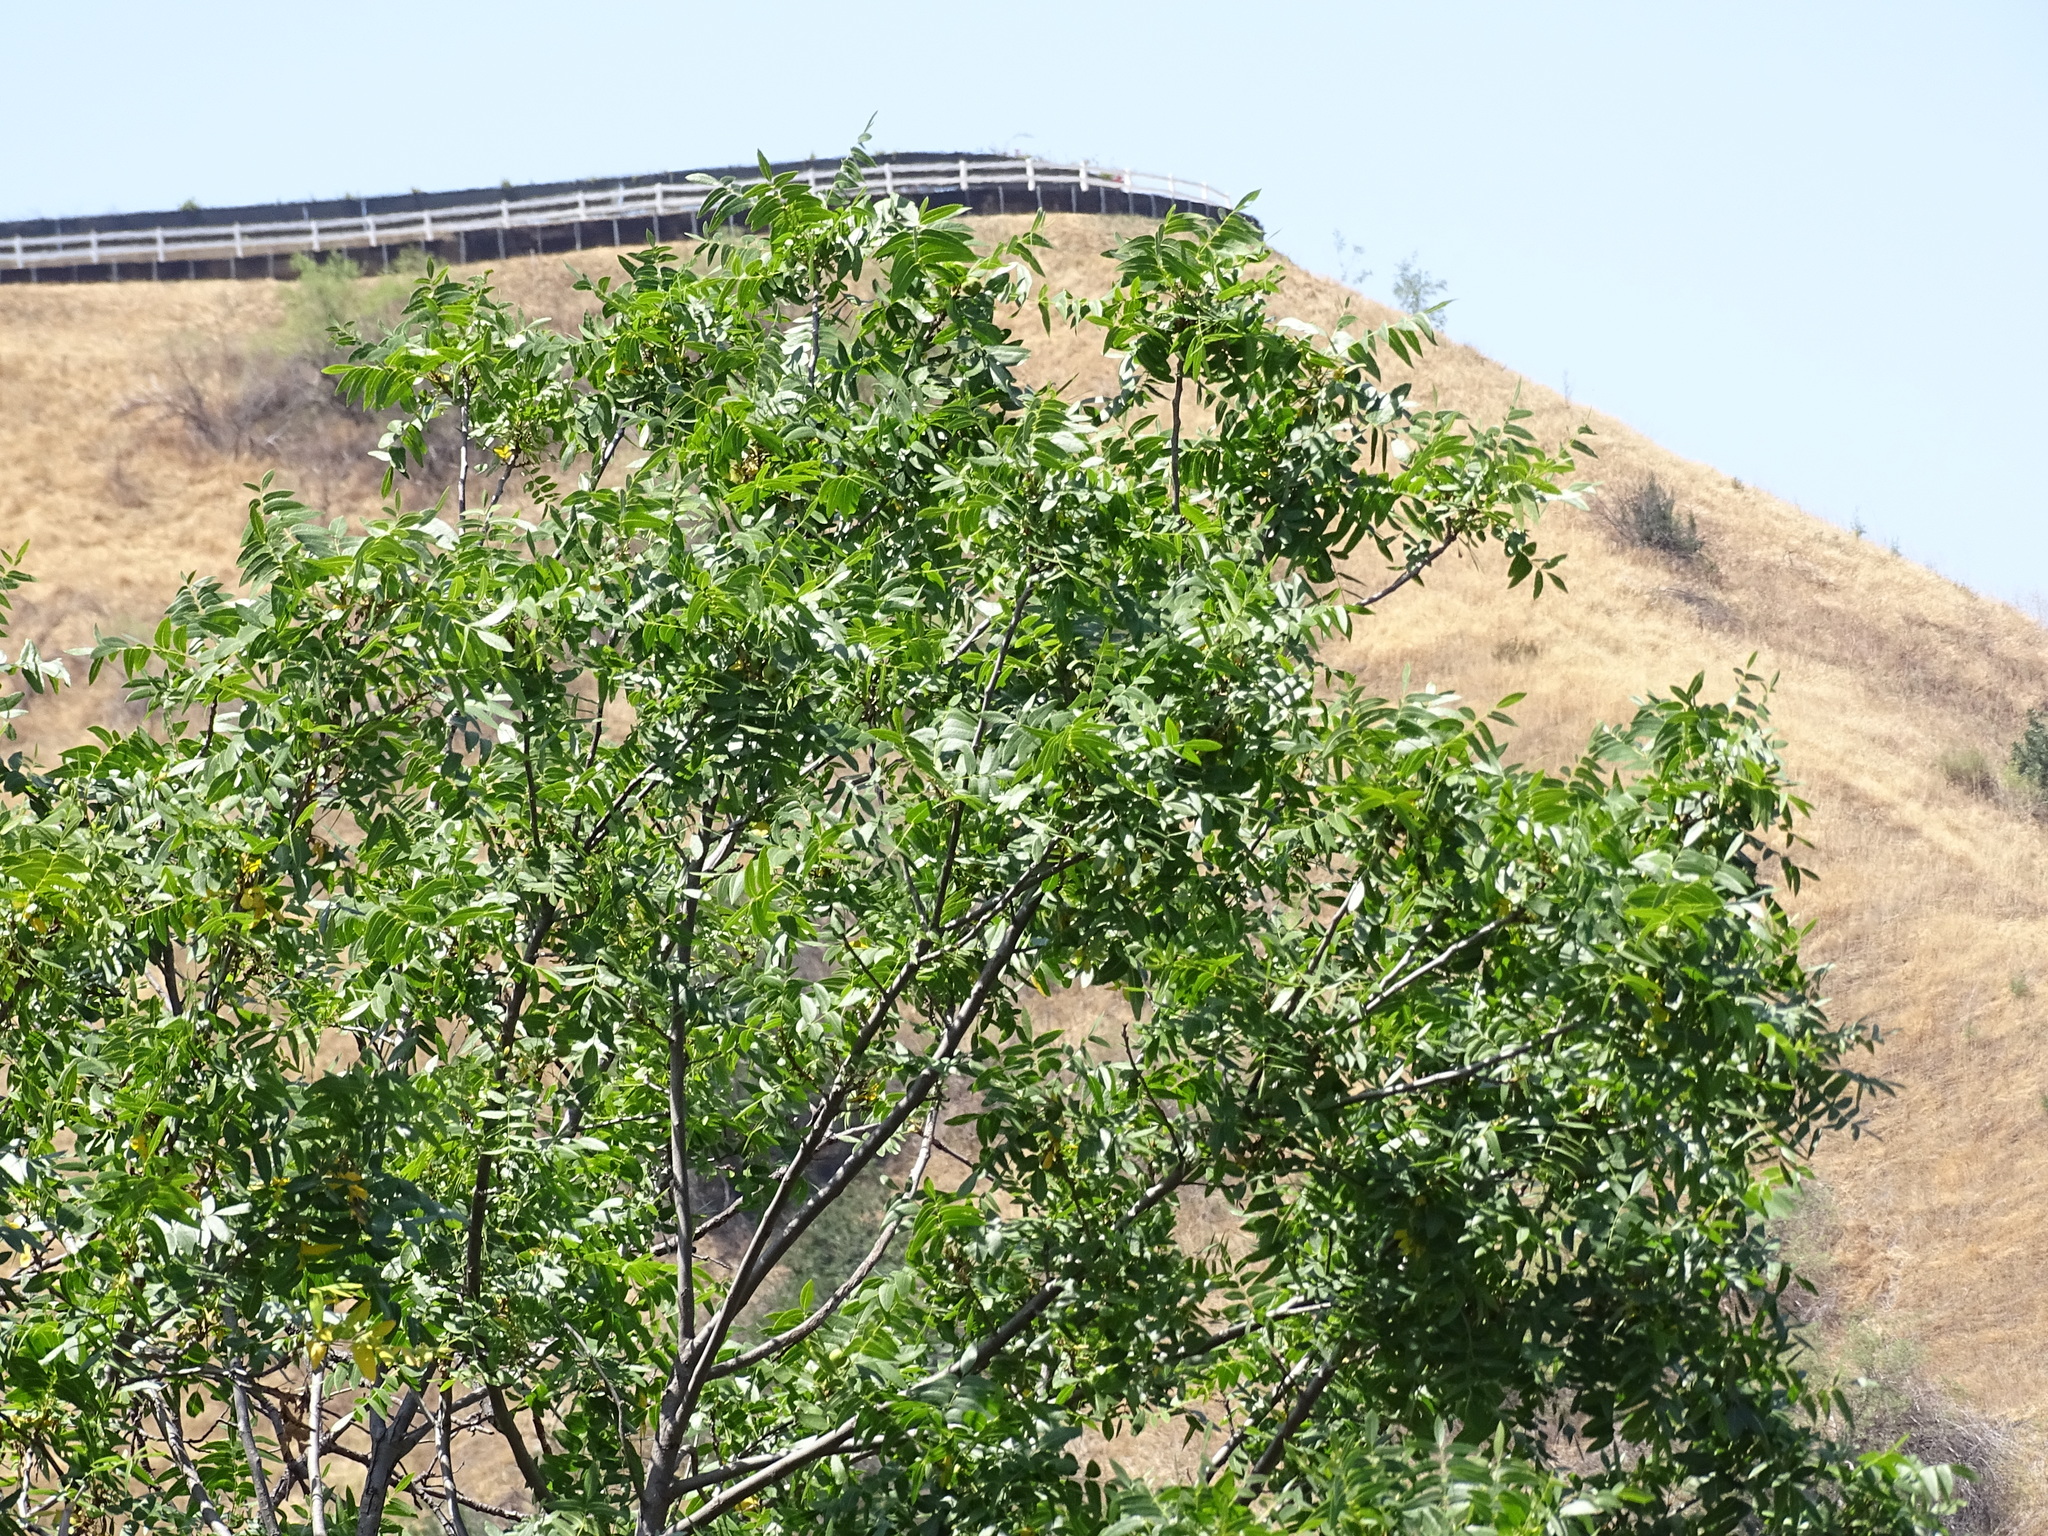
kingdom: Plantae
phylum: Tracheophyta
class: Magnoliopsida
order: Fagales
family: Juglandaceae
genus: Juglans
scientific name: Juglans californica
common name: Southern california black walnut
